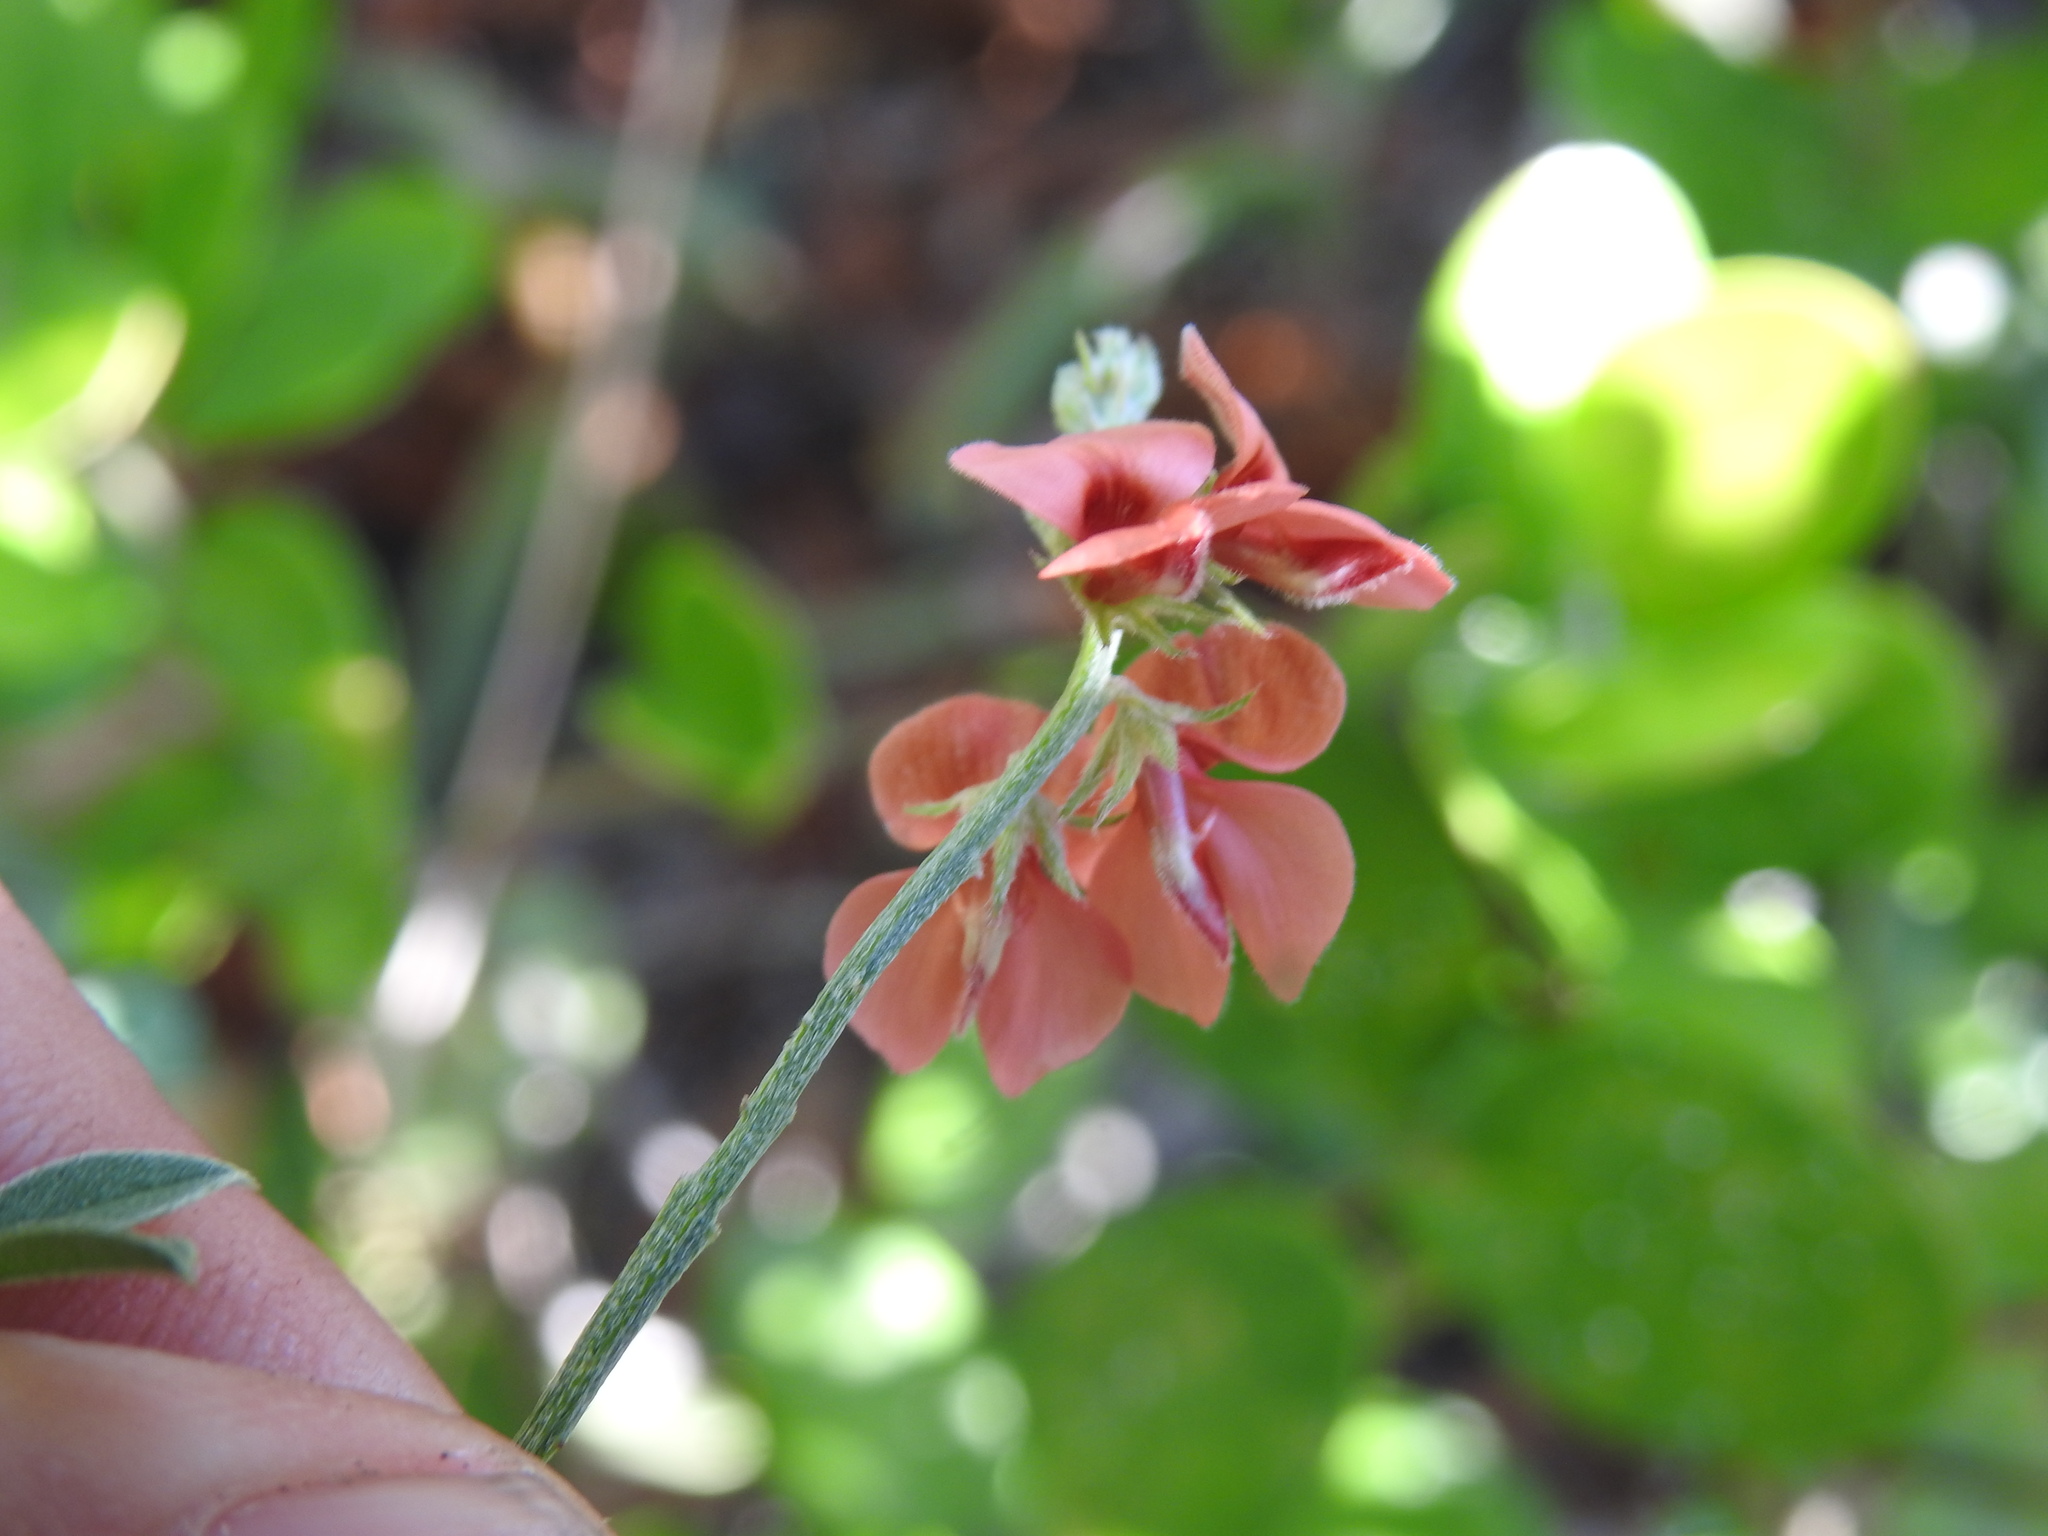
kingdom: Plantae
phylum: Tracheophyta
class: Magnoliopsida
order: Fabales
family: Fabaceae
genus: Indigofera
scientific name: Indigofera heterophylla
